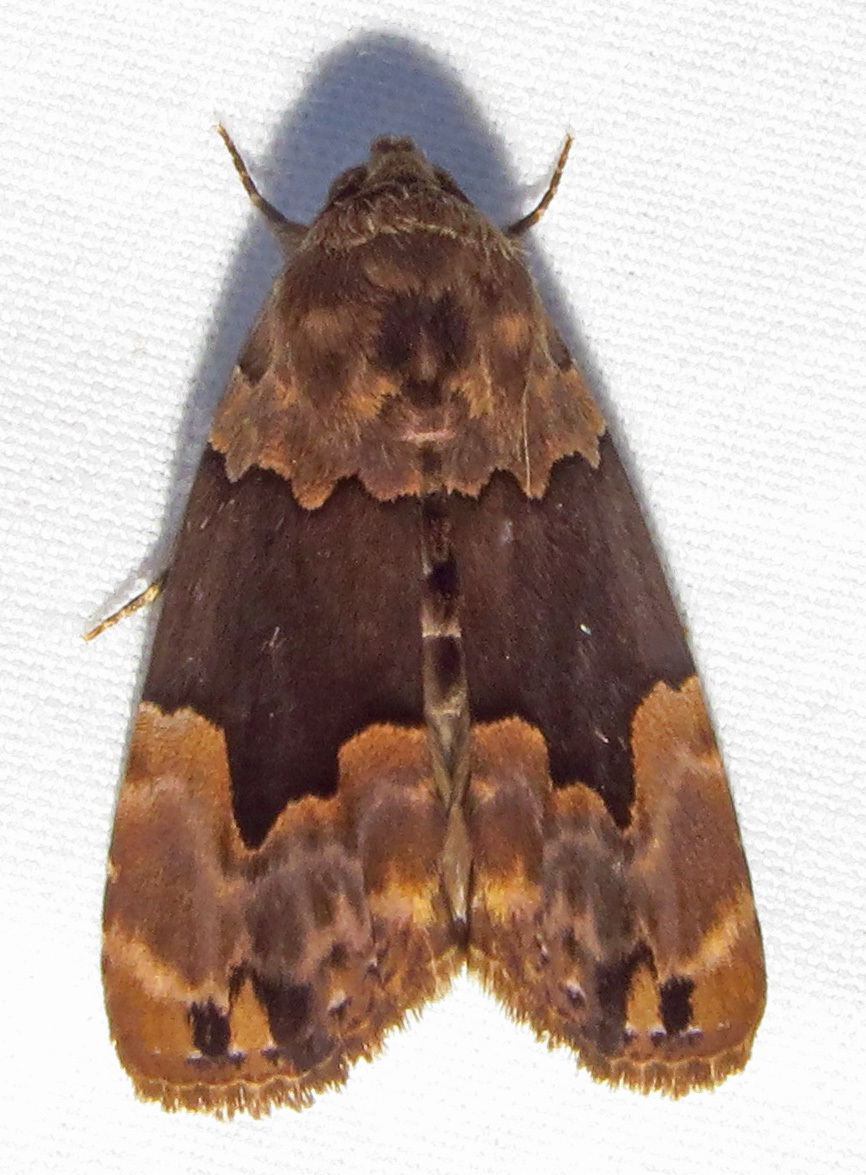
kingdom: Animalia
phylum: Arthropoda
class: Insecta
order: Lepidoptera
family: Erebidae
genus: Dinumma
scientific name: Dinumma deponens
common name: Purplish moth
